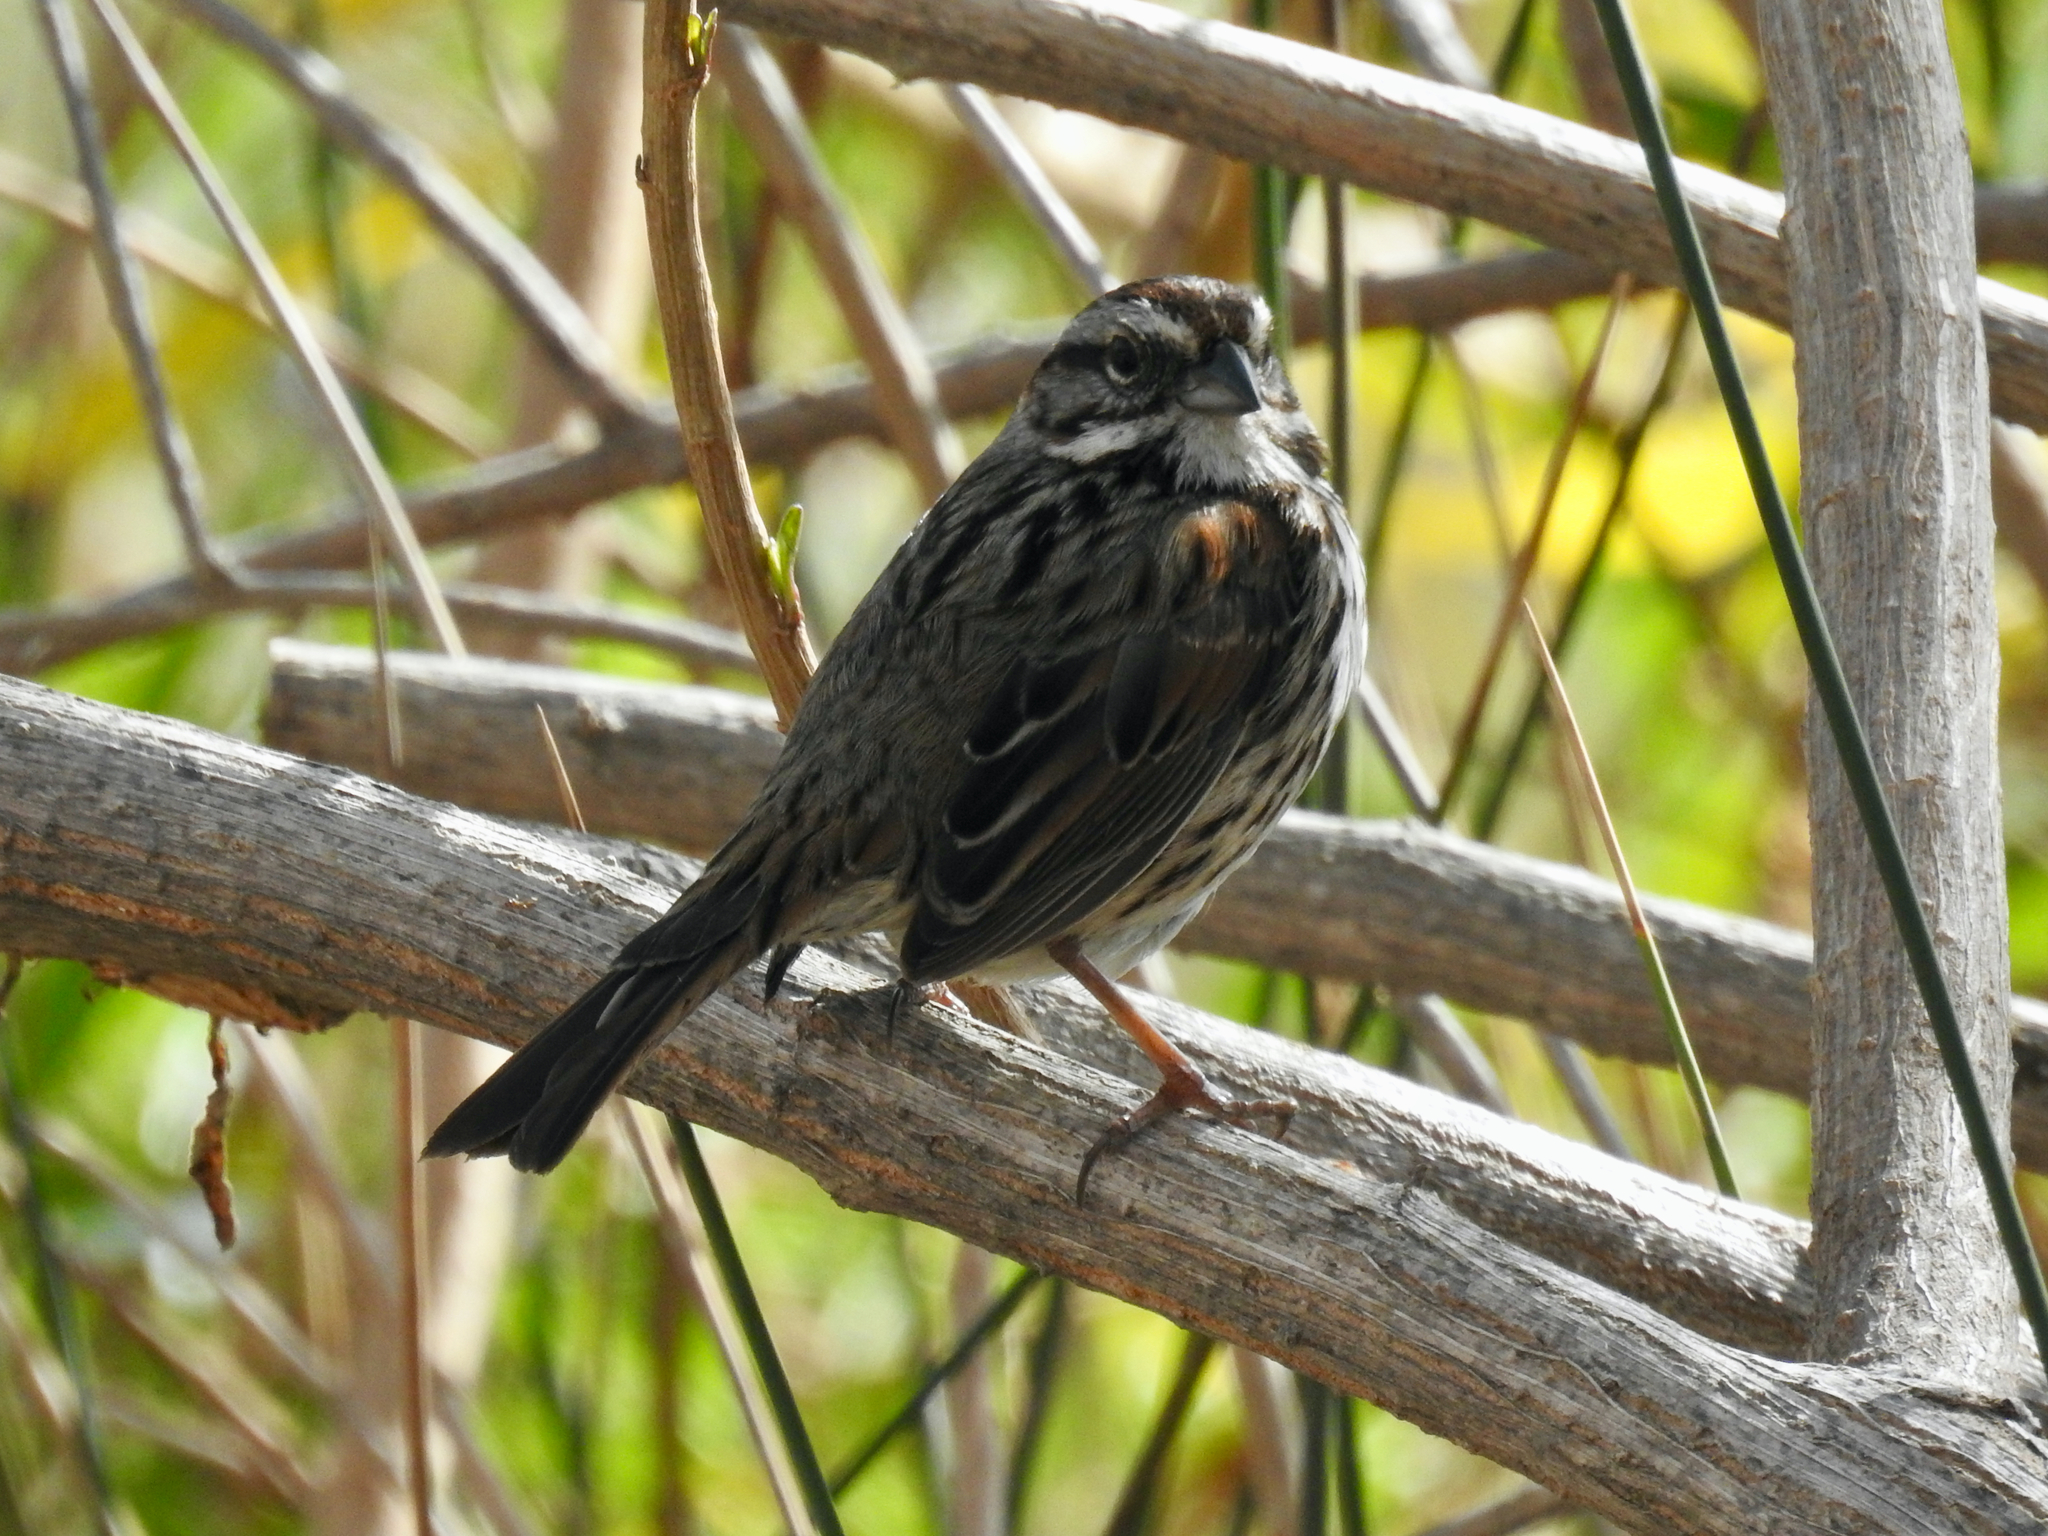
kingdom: Animalia
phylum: Chordata
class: Aves
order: Passeriformes
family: Passerellidae
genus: Melospiza
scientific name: Melospiza melodia
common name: Song sparrow
